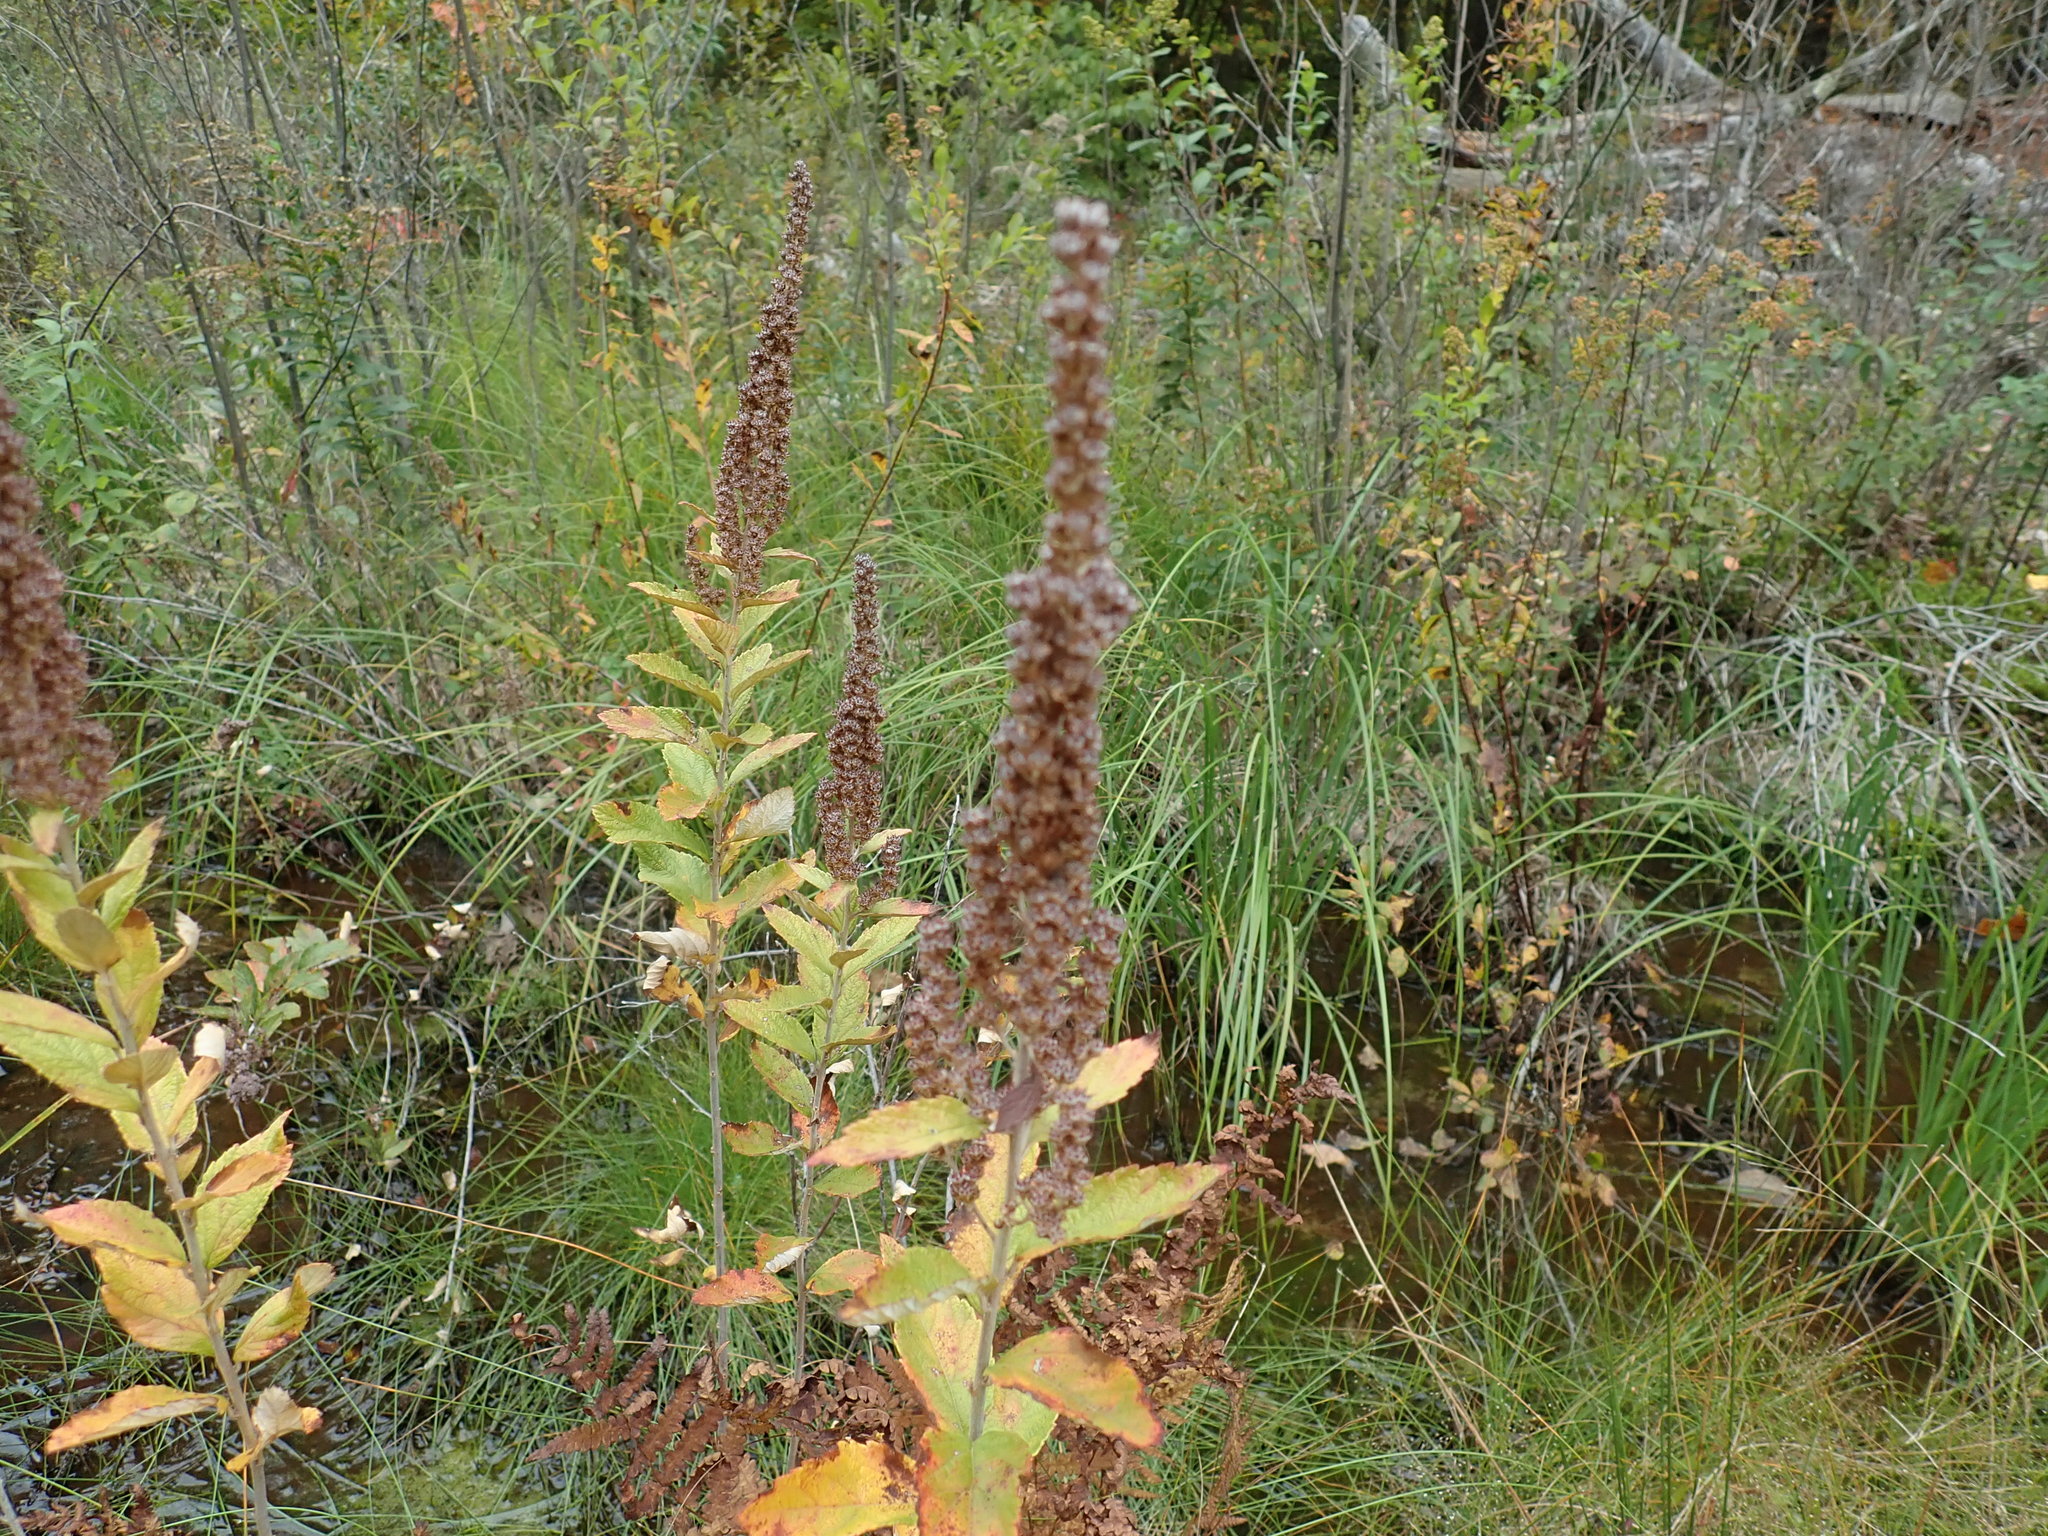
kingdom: Plantae
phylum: Tracheophyta
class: Magnoliopsida
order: Rosales
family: Rosaceae
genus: Spiraea
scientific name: Spiraea tomentosa
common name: Hardhack
